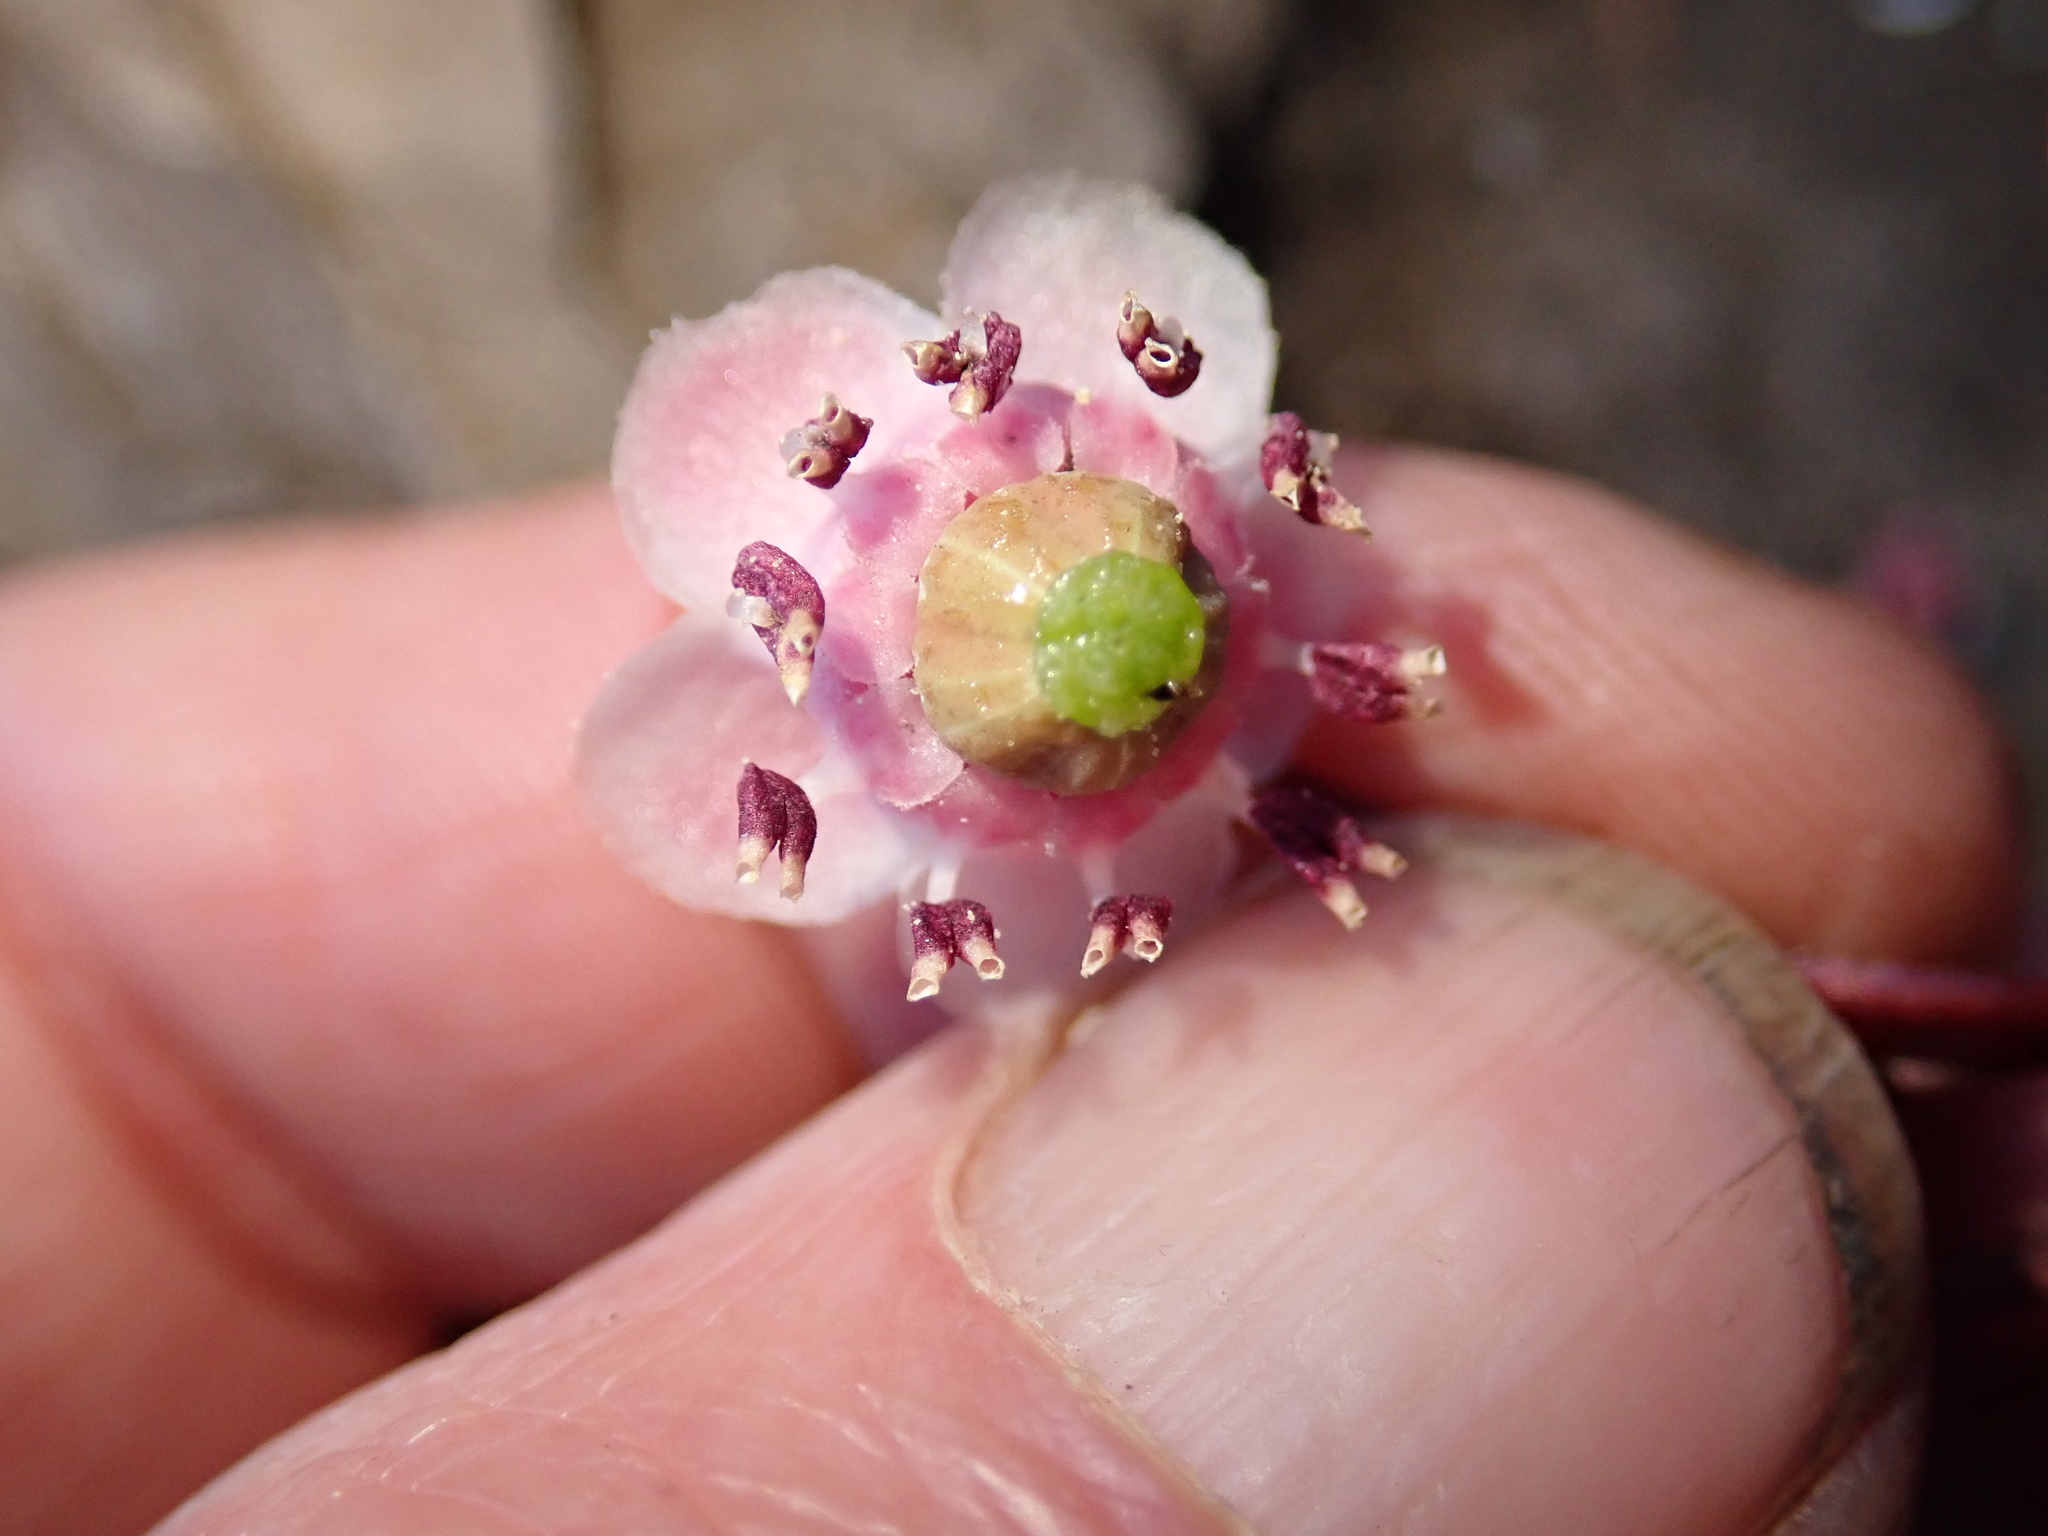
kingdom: Plantae
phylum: Tracheophyta
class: Magnoliopsida
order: Ericales
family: Ericaceae
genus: Chimaphila
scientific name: Chimaphila umbellata
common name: Pipsissewa
